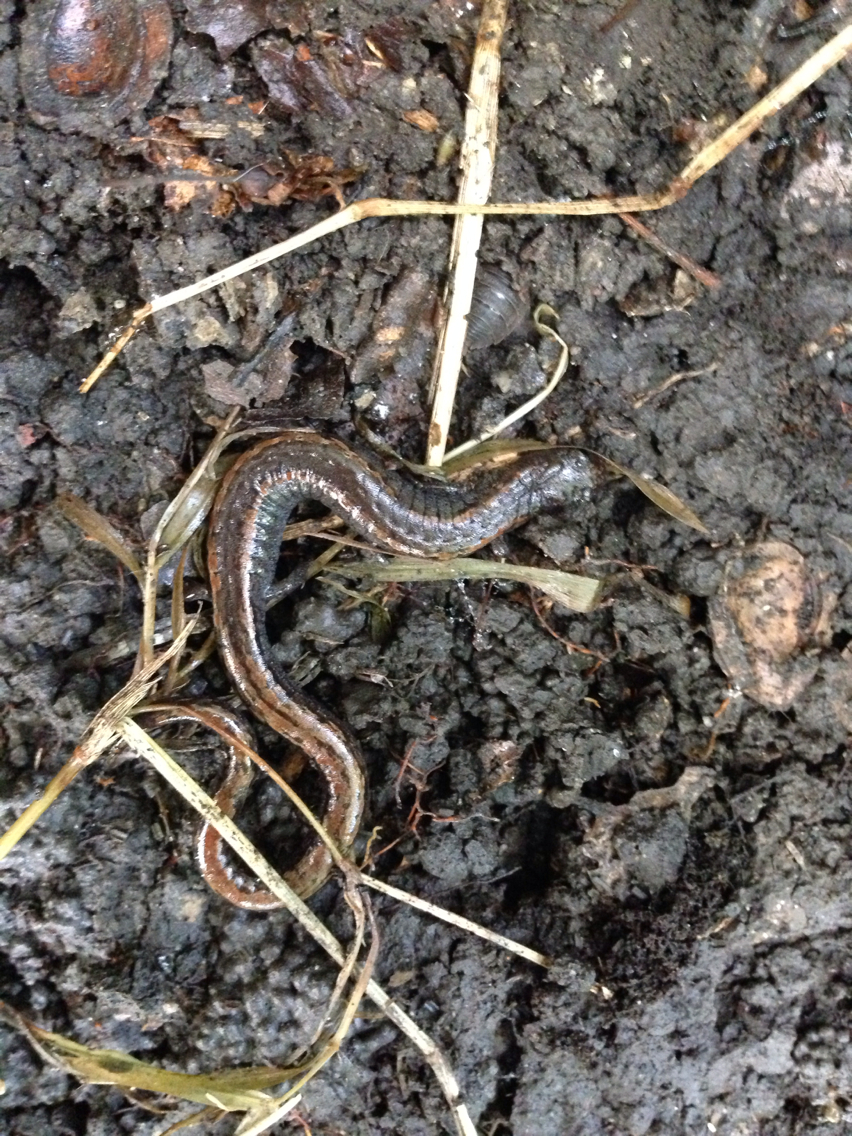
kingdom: Animalia
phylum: Chordata
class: Amphibia
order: Caudata
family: Plethodontidae
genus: Batrachoseps
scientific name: Batrachoseps attenuatus
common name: California slender salamander
